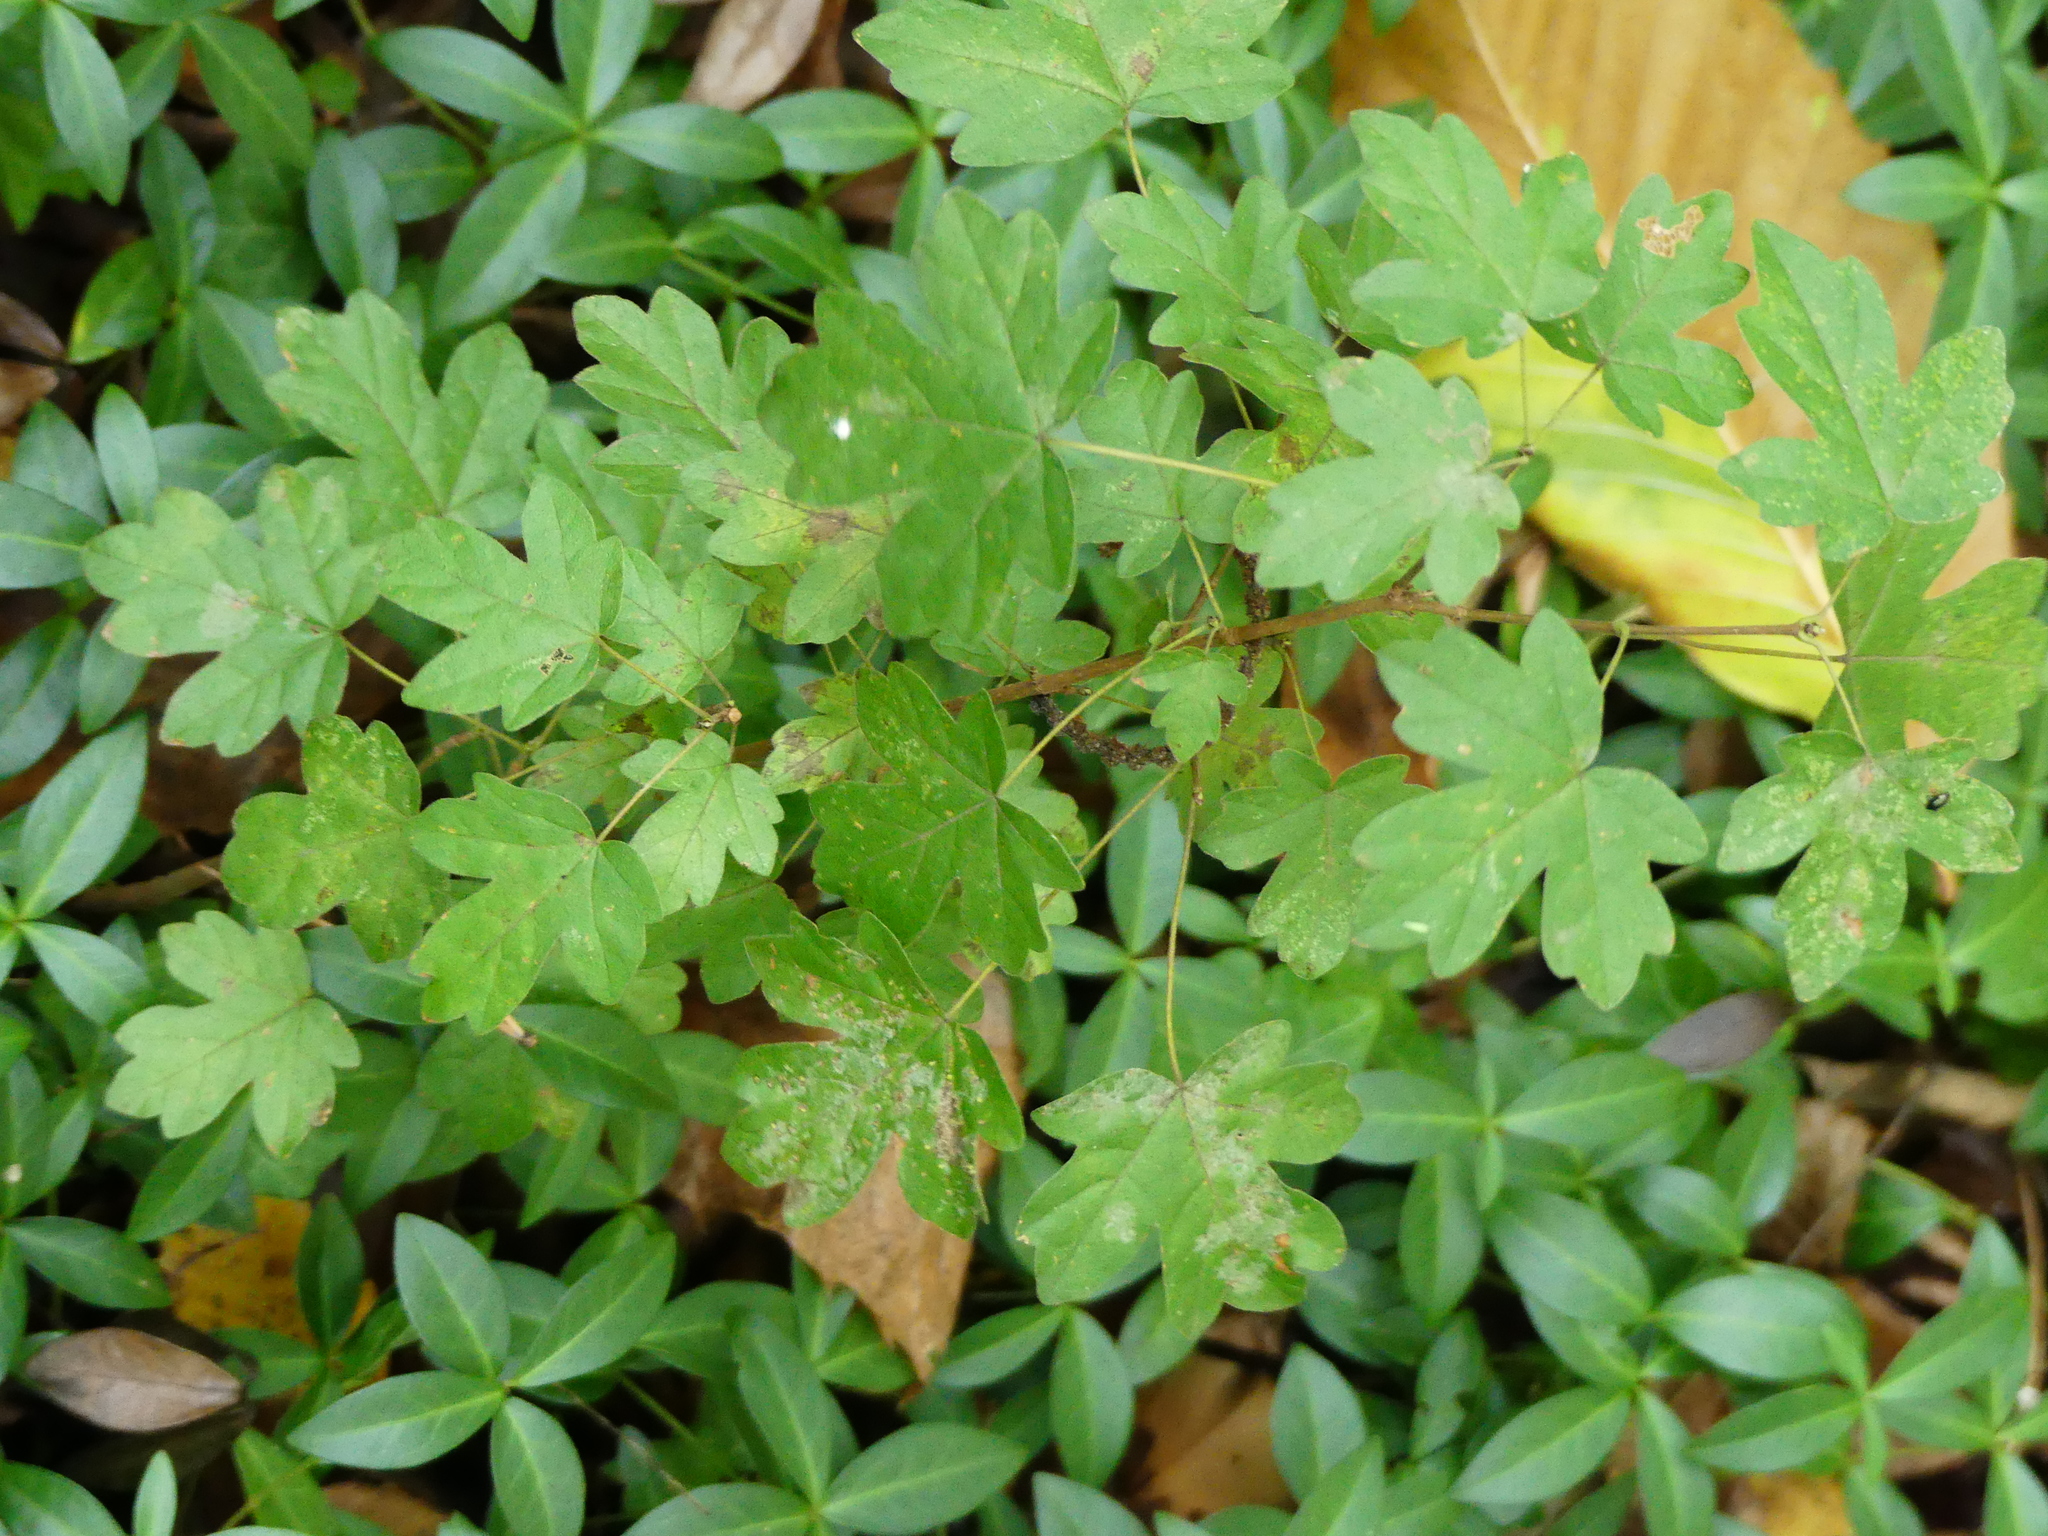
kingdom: Plantae
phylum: Tracheophyta
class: Magnoliopsida
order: Sapindales
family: Sapindaceae
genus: Acer
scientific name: Acer campestre
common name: Field maple
